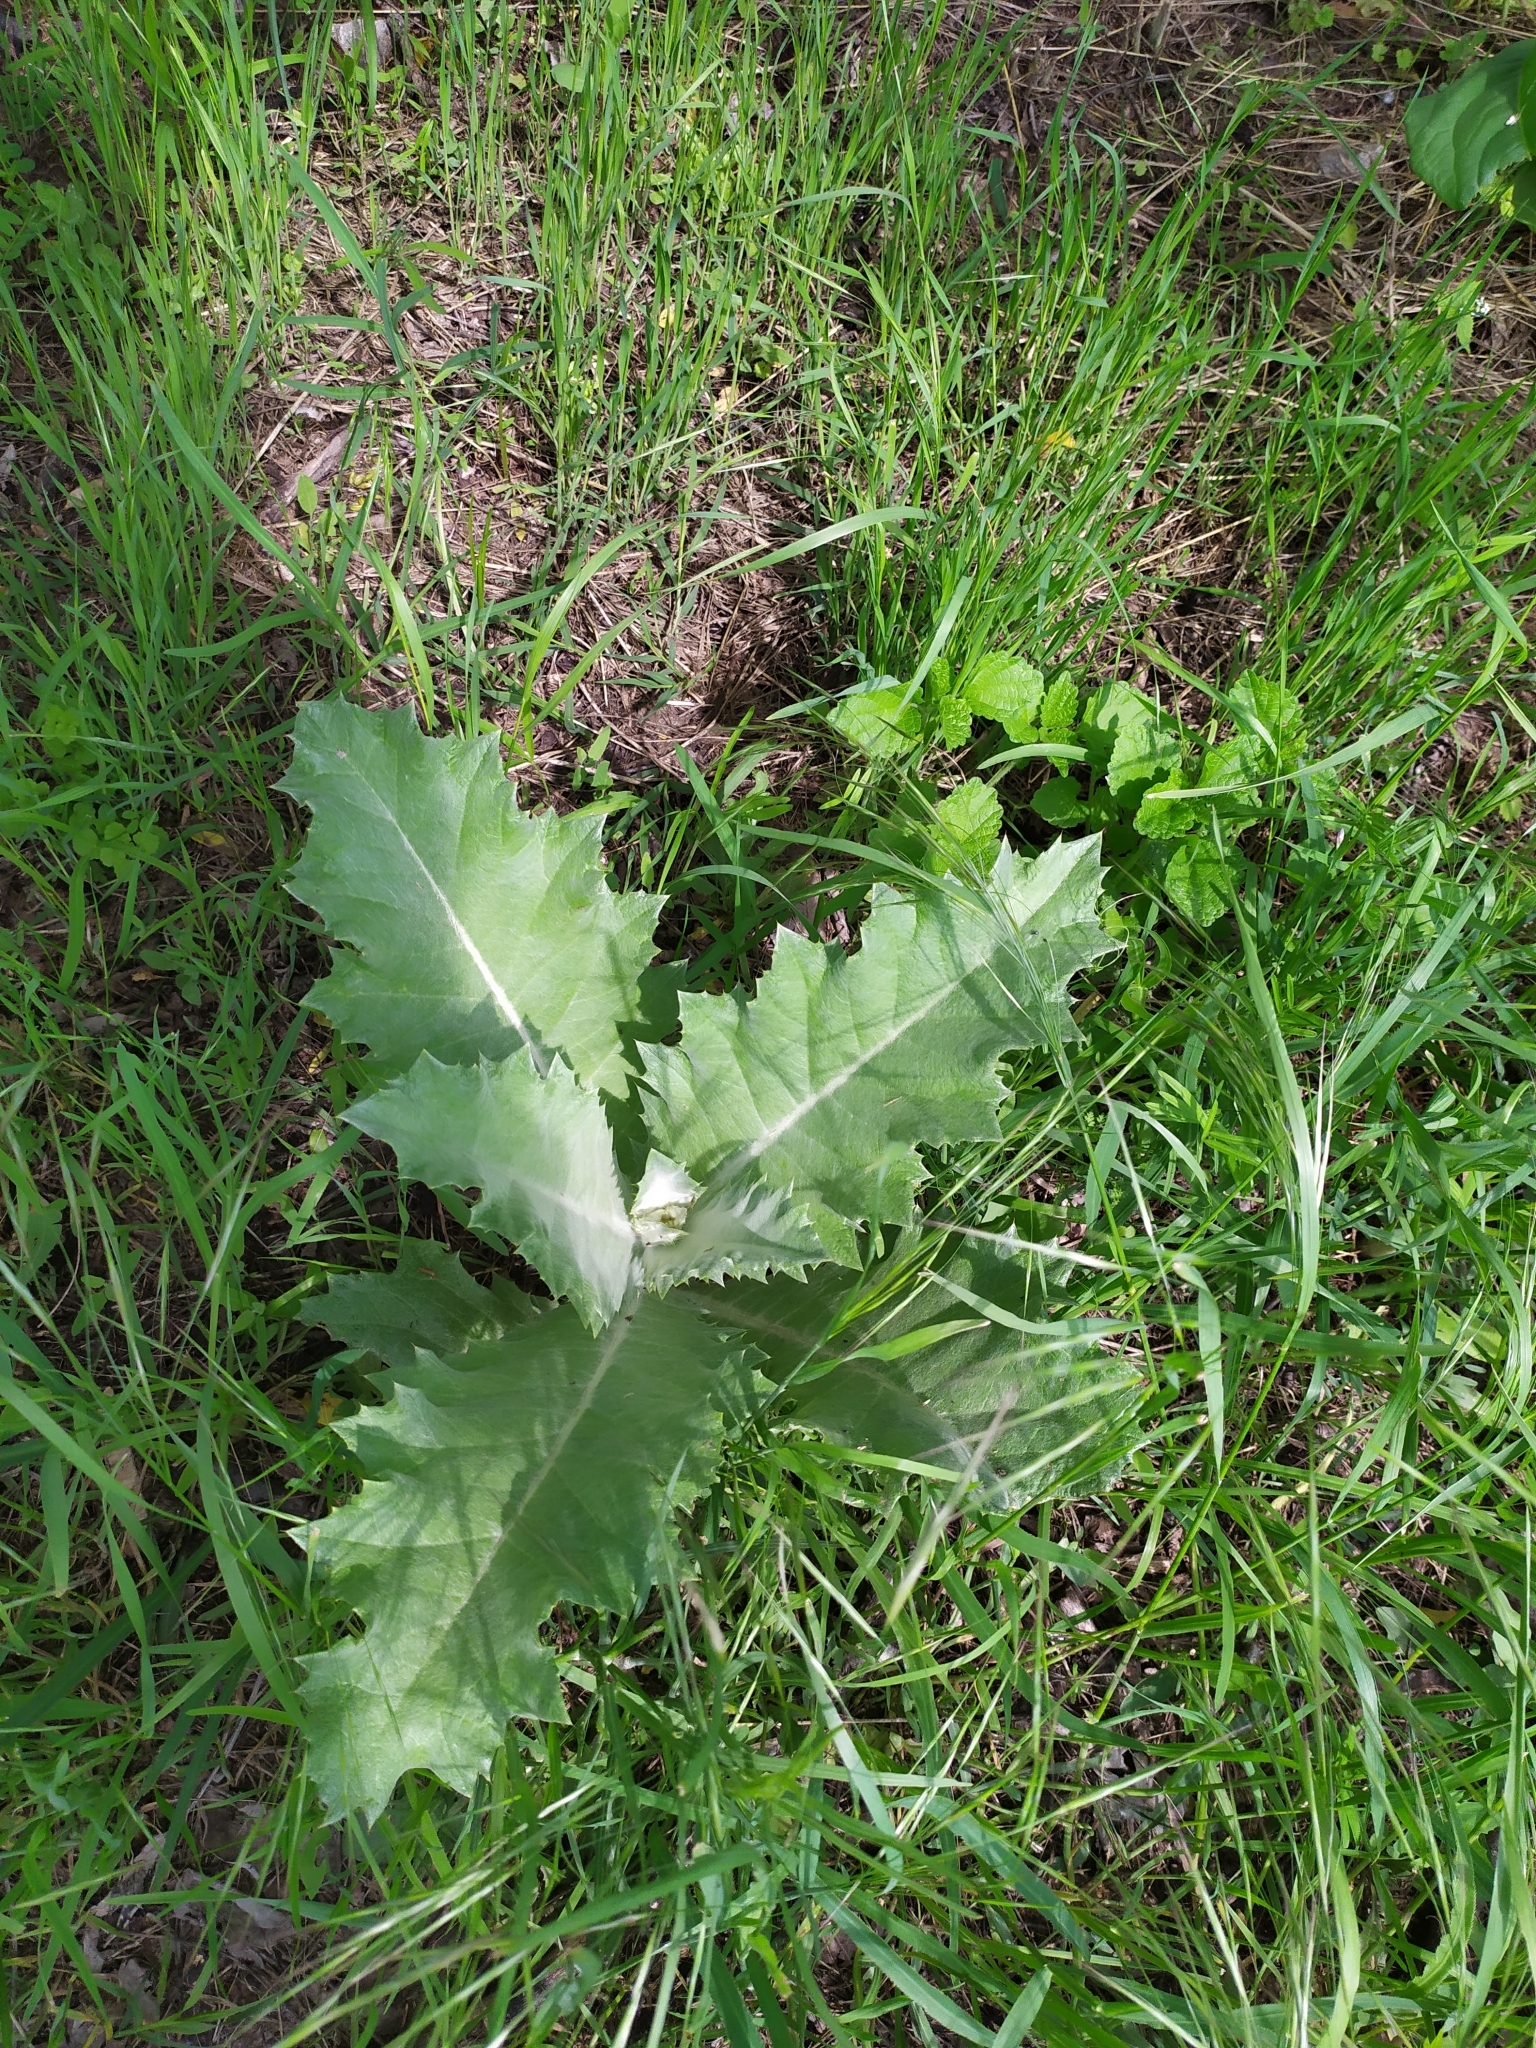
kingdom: Plantae
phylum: Tracheophyta
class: Magnoliopsida
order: Asterales
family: Asteraceae
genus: Onopordum
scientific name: Onopordum acanthium
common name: Scotch thistle
